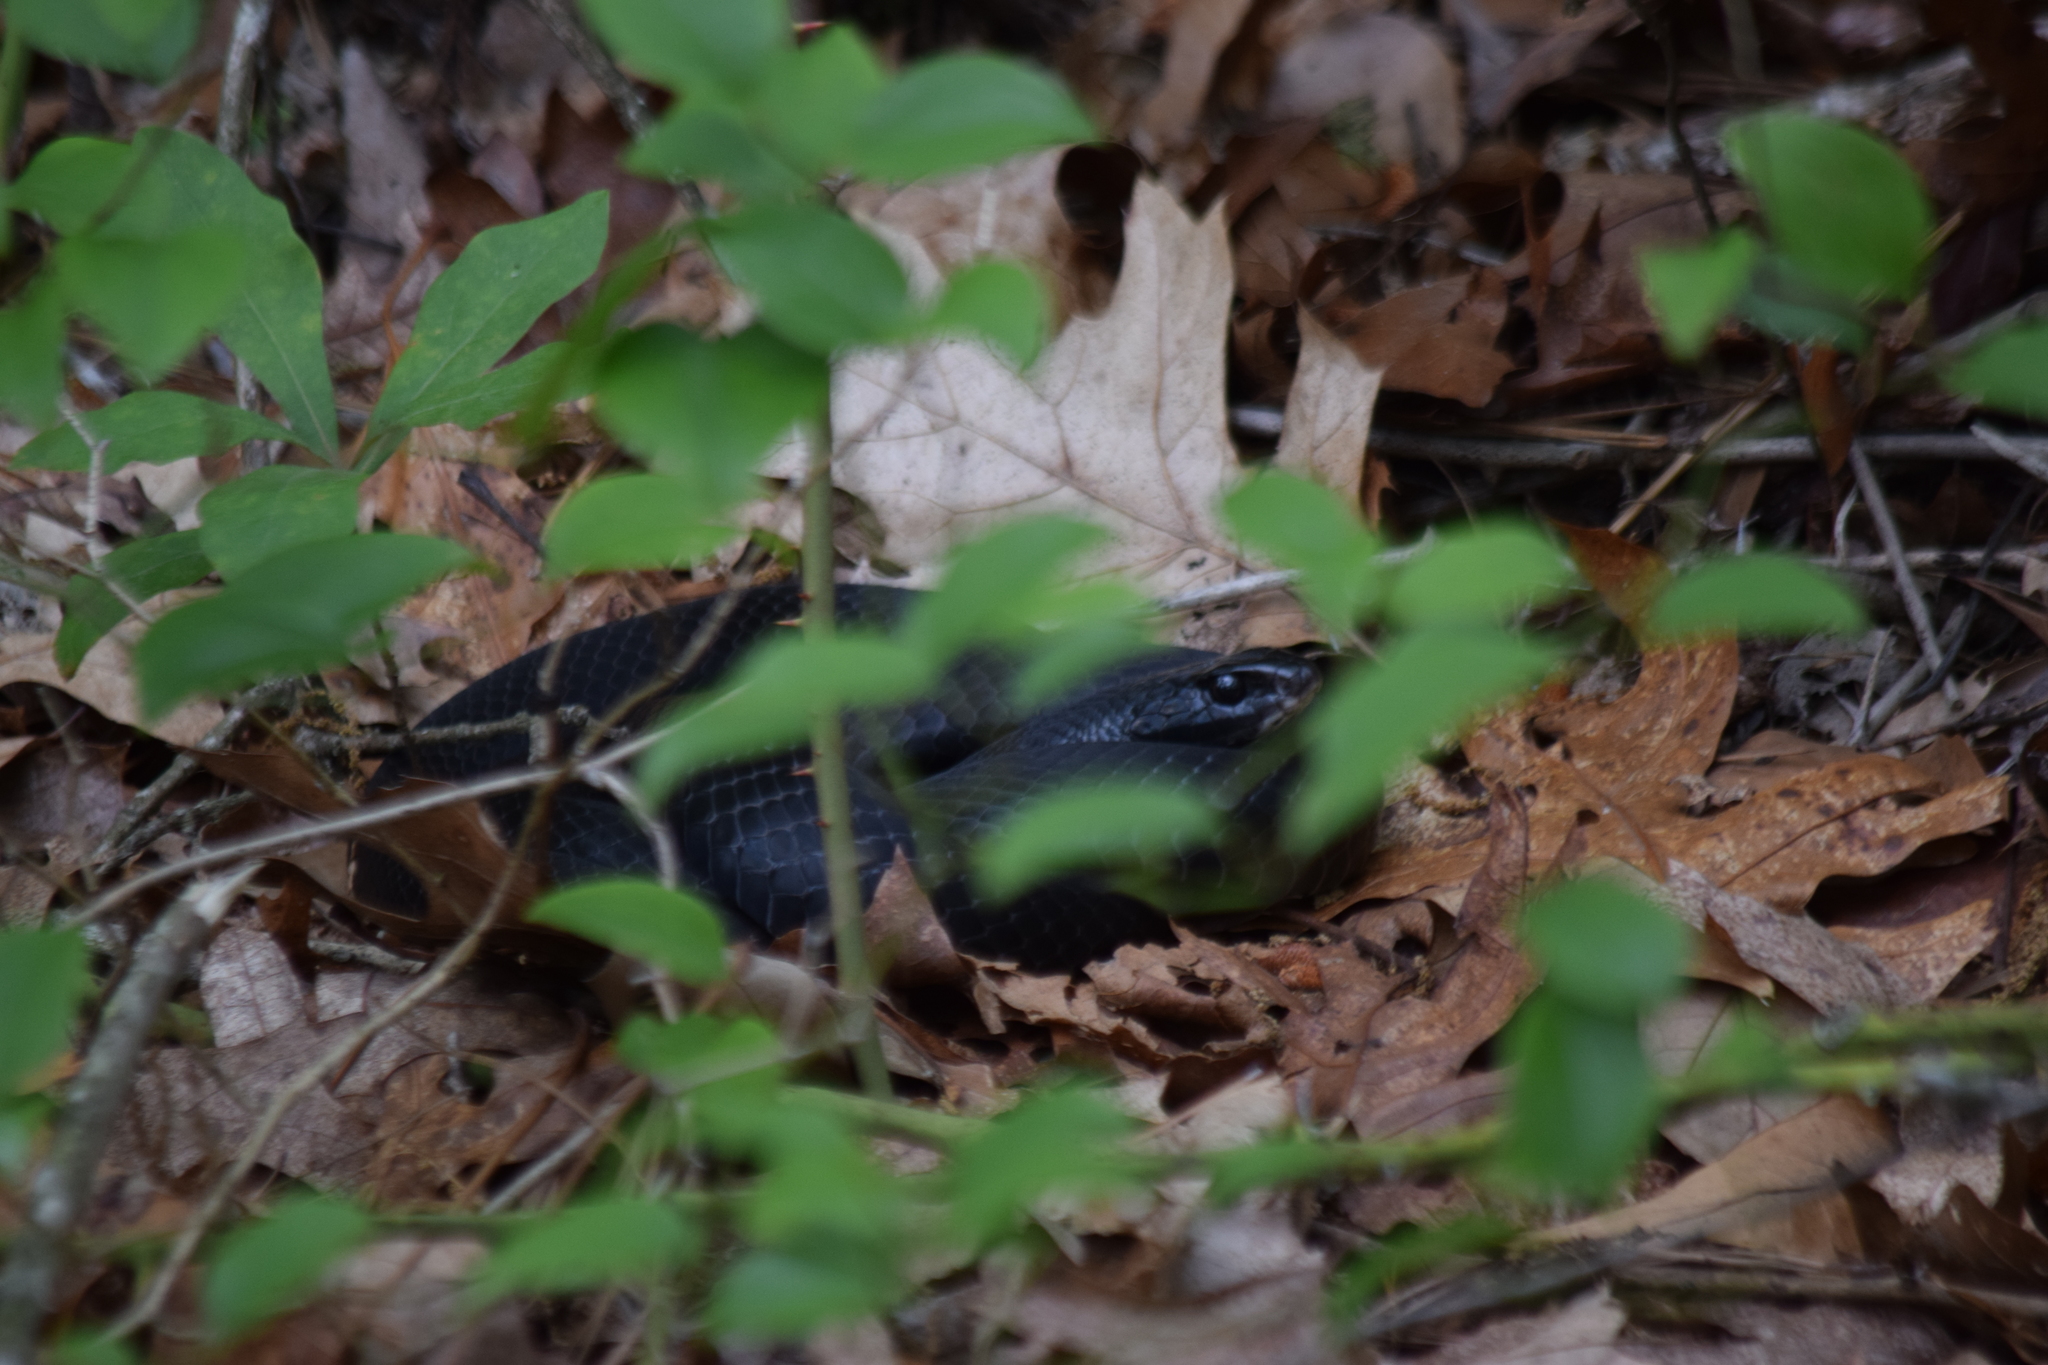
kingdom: Animalia
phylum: Chordata
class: Squamata
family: Colubridae
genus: Coluber
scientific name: Coluber constrictor
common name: Eastern racer
